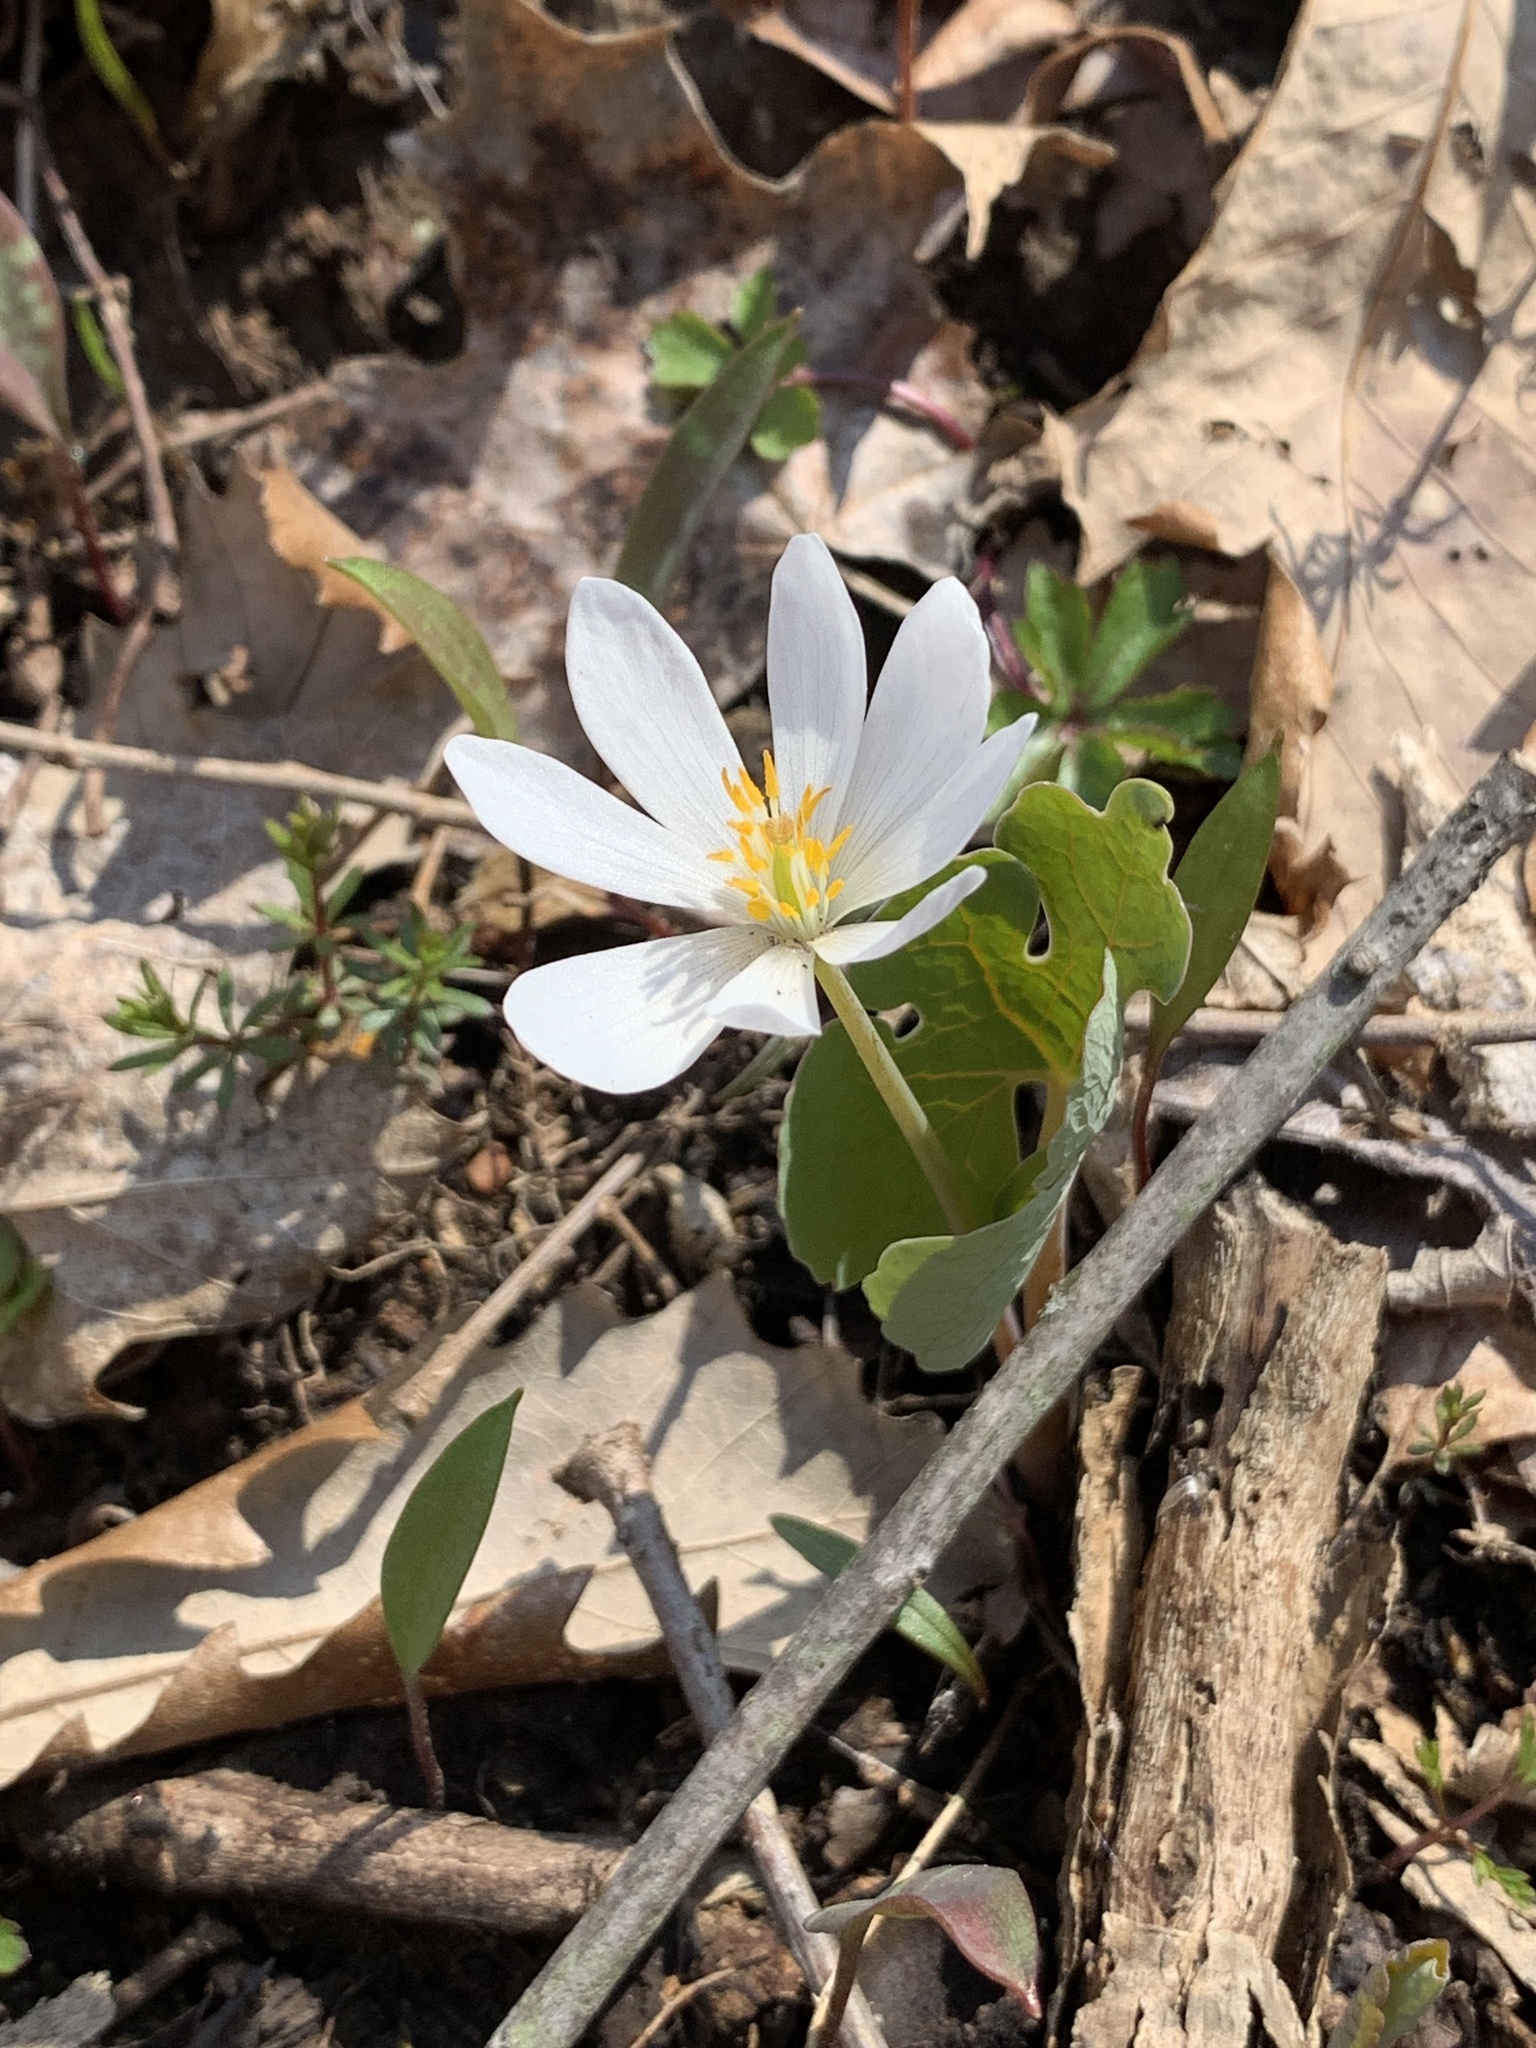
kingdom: Plantae
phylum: Tracheophyta
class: Magnoliopsida
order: Ranunculales
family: Papaveraceae
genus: Sanguinaria
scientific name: Sanguinaria canadensis
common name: Bloodroot
